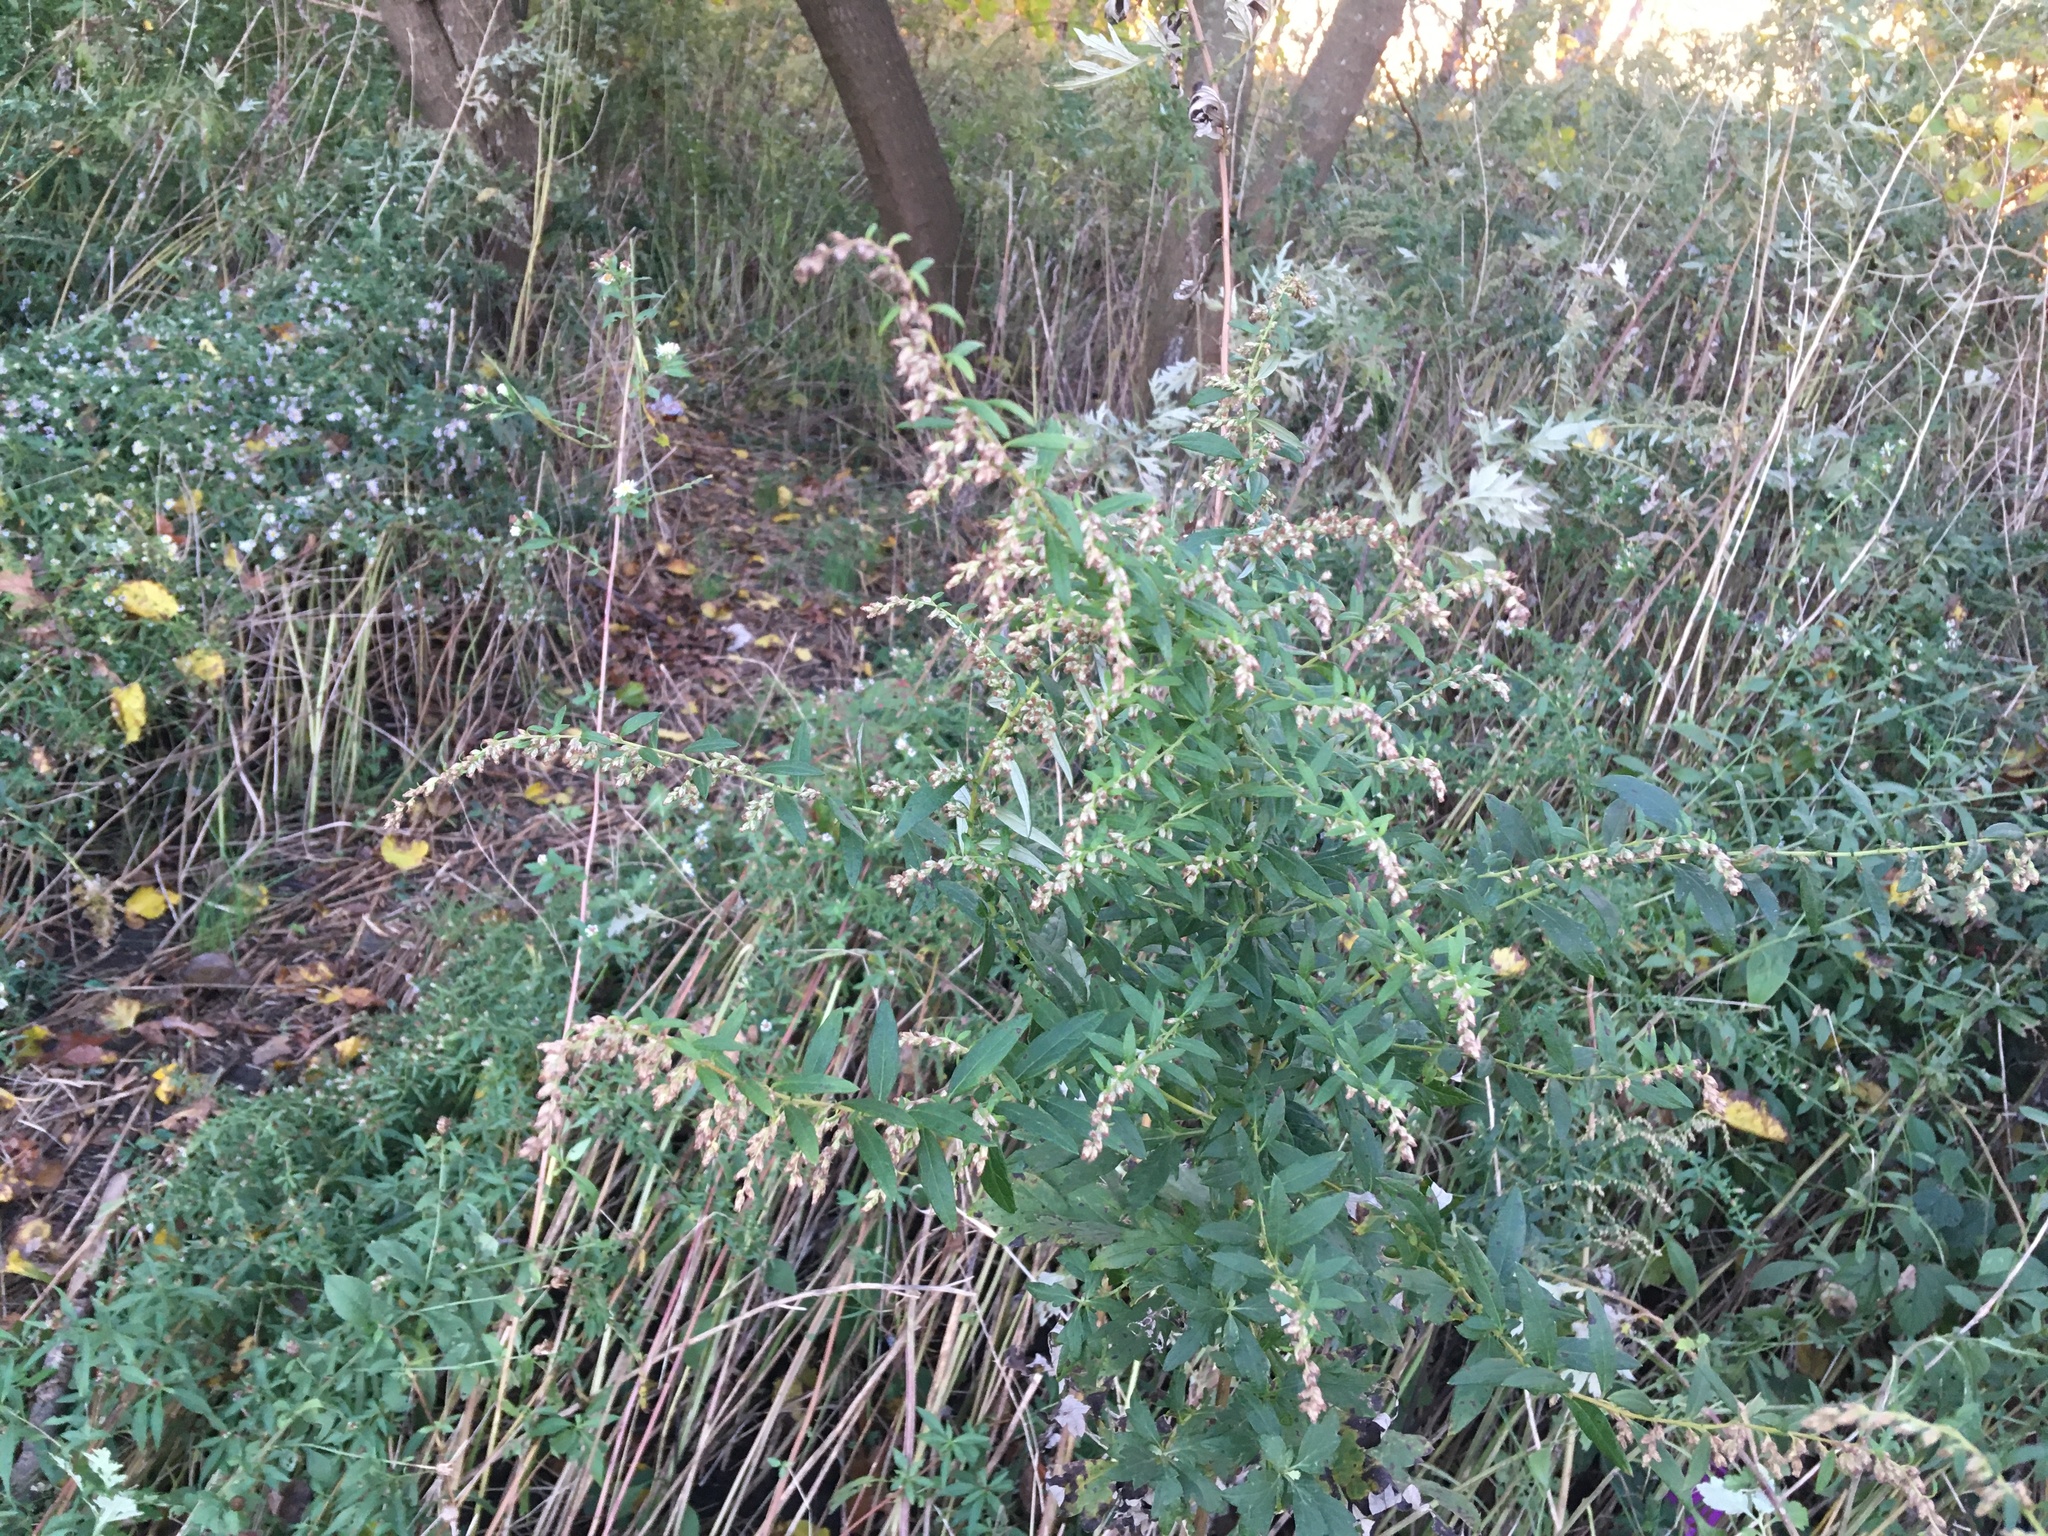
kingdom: Plantae
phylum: Tracheophyta
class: Magnoliopsida
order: Asterales
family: Asteraceae
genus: Artemisia
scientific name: Artemisia vulgaris
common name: Mugwort
